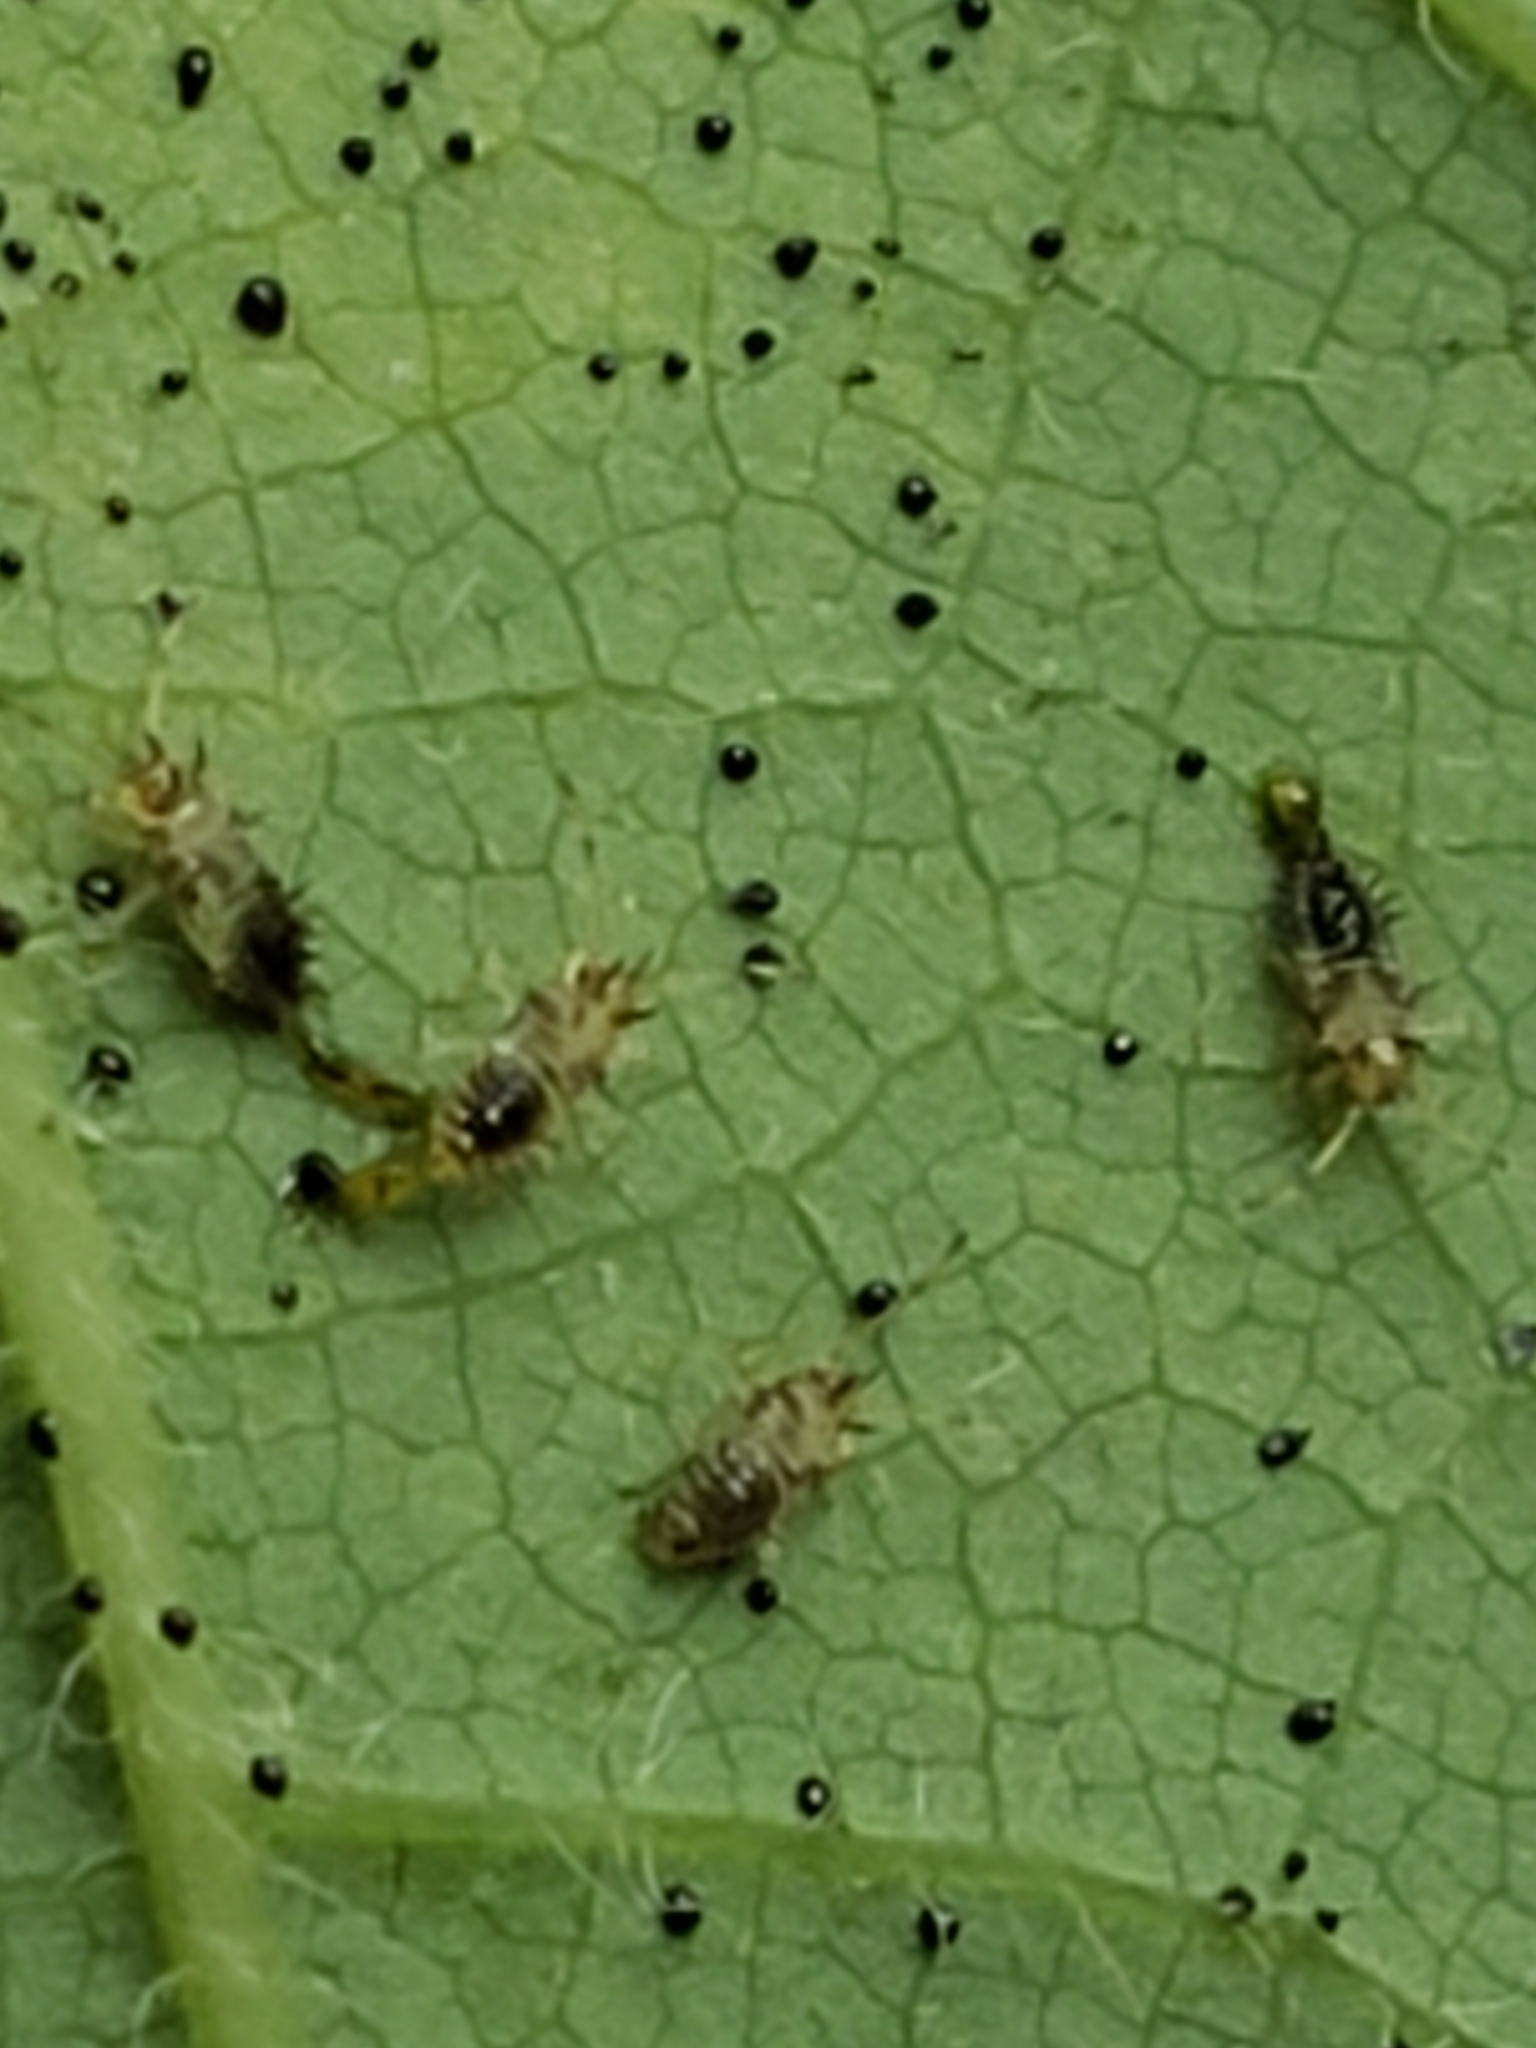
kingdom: Animalia
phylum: Arthropoda
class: Insecta
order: Hemiptera
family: Tingidae
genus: Stephanitis
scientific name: Stephanitis takeyai
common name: Andromeda lacebug
